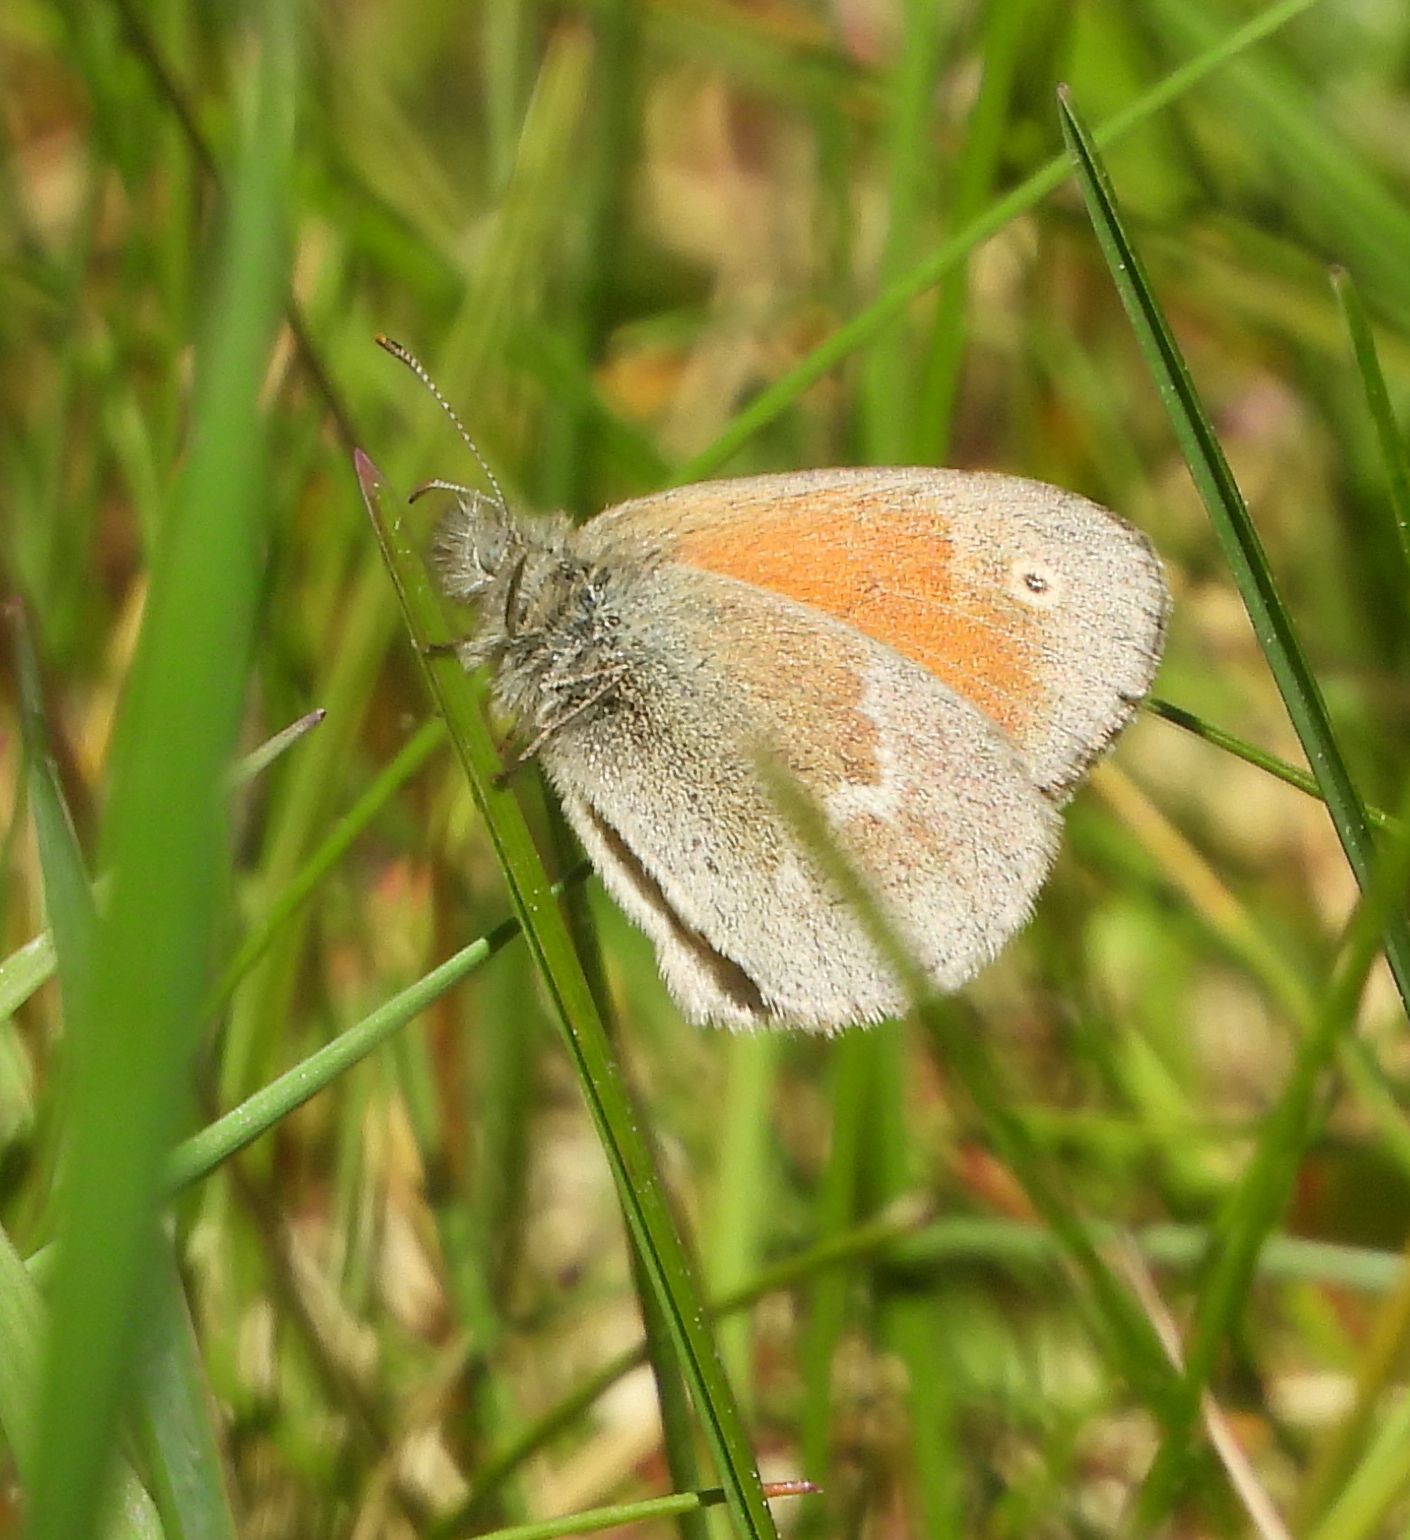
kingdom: Animalia
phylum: Arthropoda
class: Insecta
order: Lepidoptera
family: Nymphalidae
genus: Coenonympha
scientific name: Coenonympha california
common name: Common ringlet
